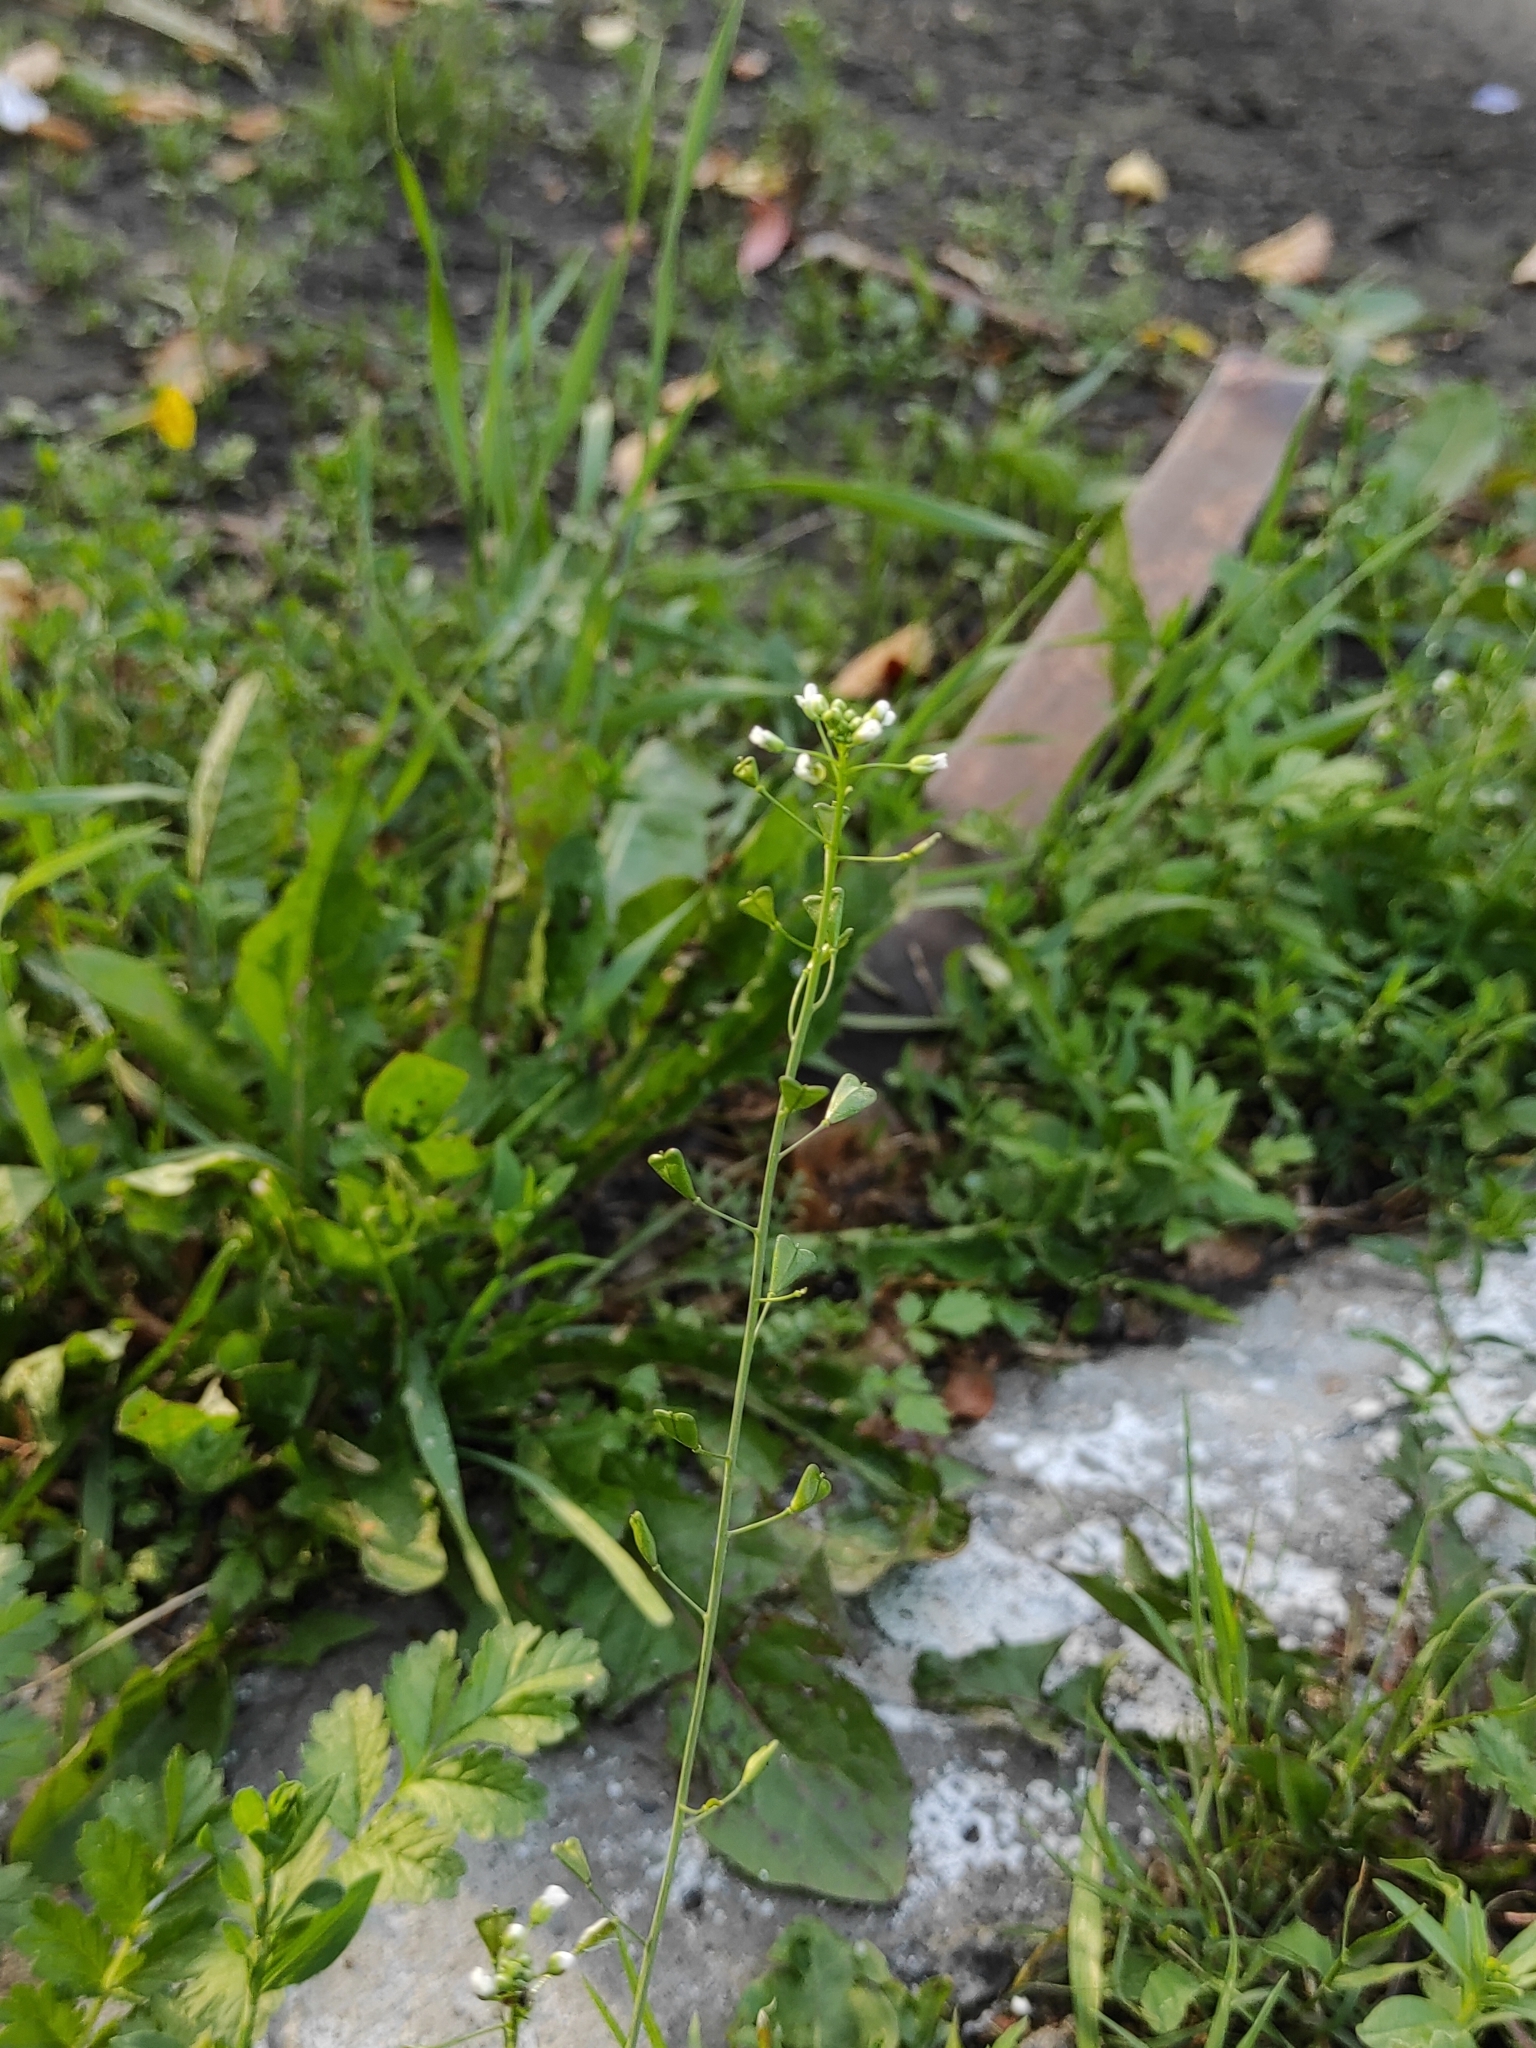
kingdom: Plantae
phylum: Tracheophyta
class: Magnoliopsida
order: Brassicales
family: Brassicaceae
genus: Capsella
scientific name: Capsella bursa-pastoris
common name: Shepherd's purse
